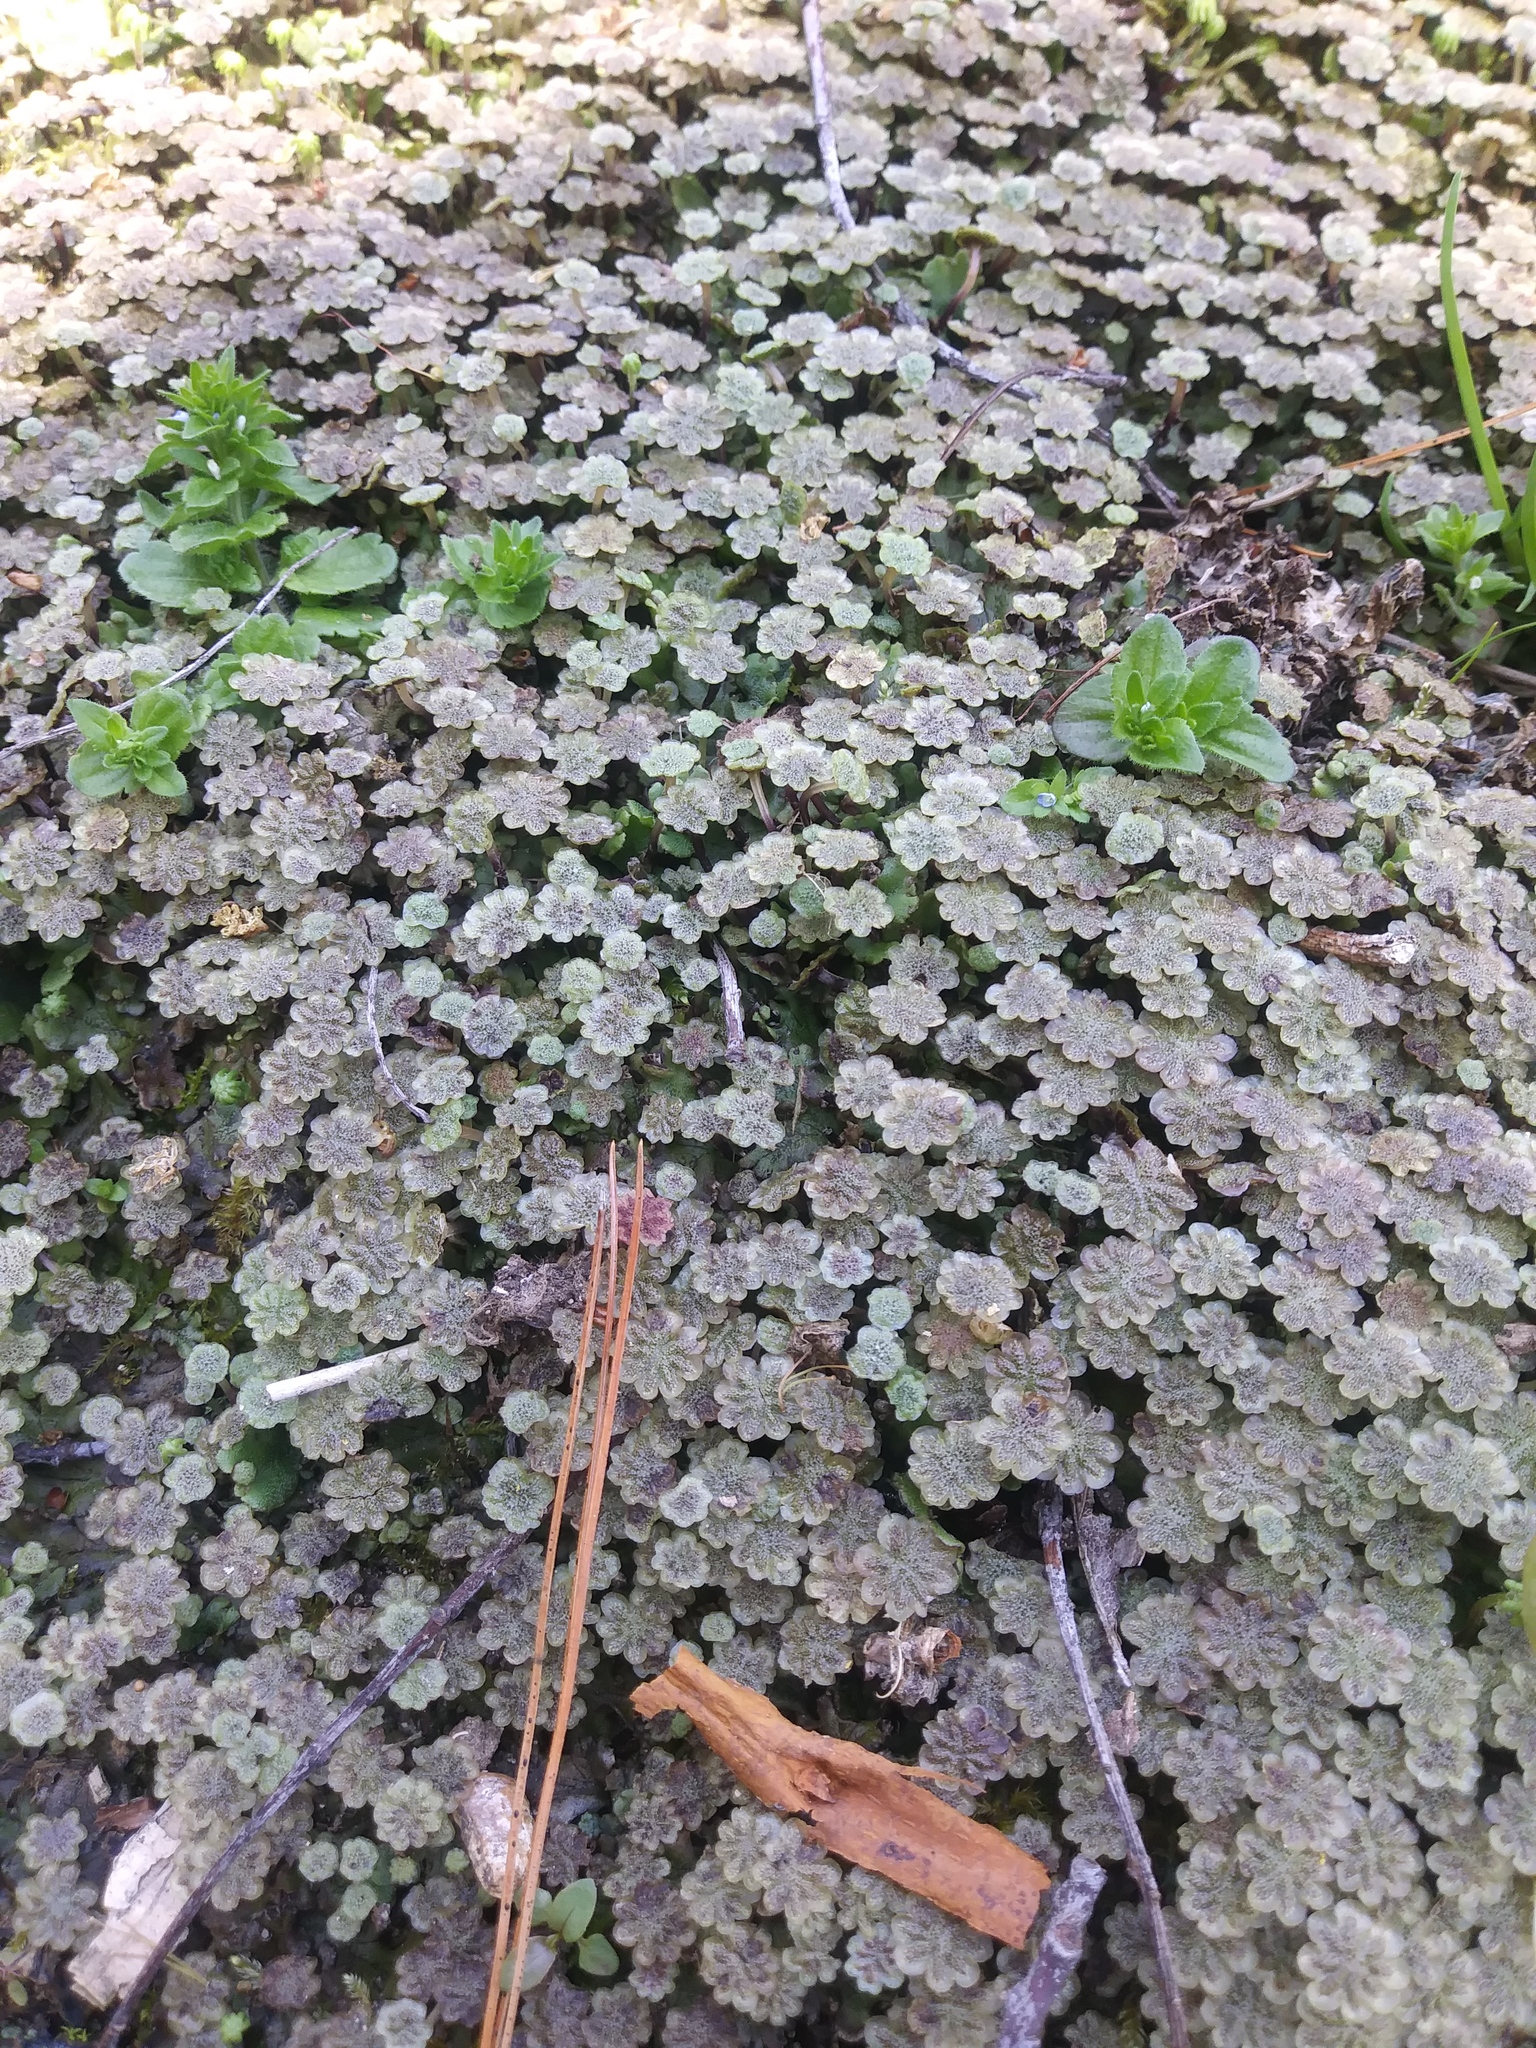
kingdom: Plantae
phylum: Marchantiophyta
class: Marchantiopsida
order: Marchantiales
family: Marchantiaceae
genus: Marchantia
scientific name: Marchantia polymorpha
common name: Common liverwort
